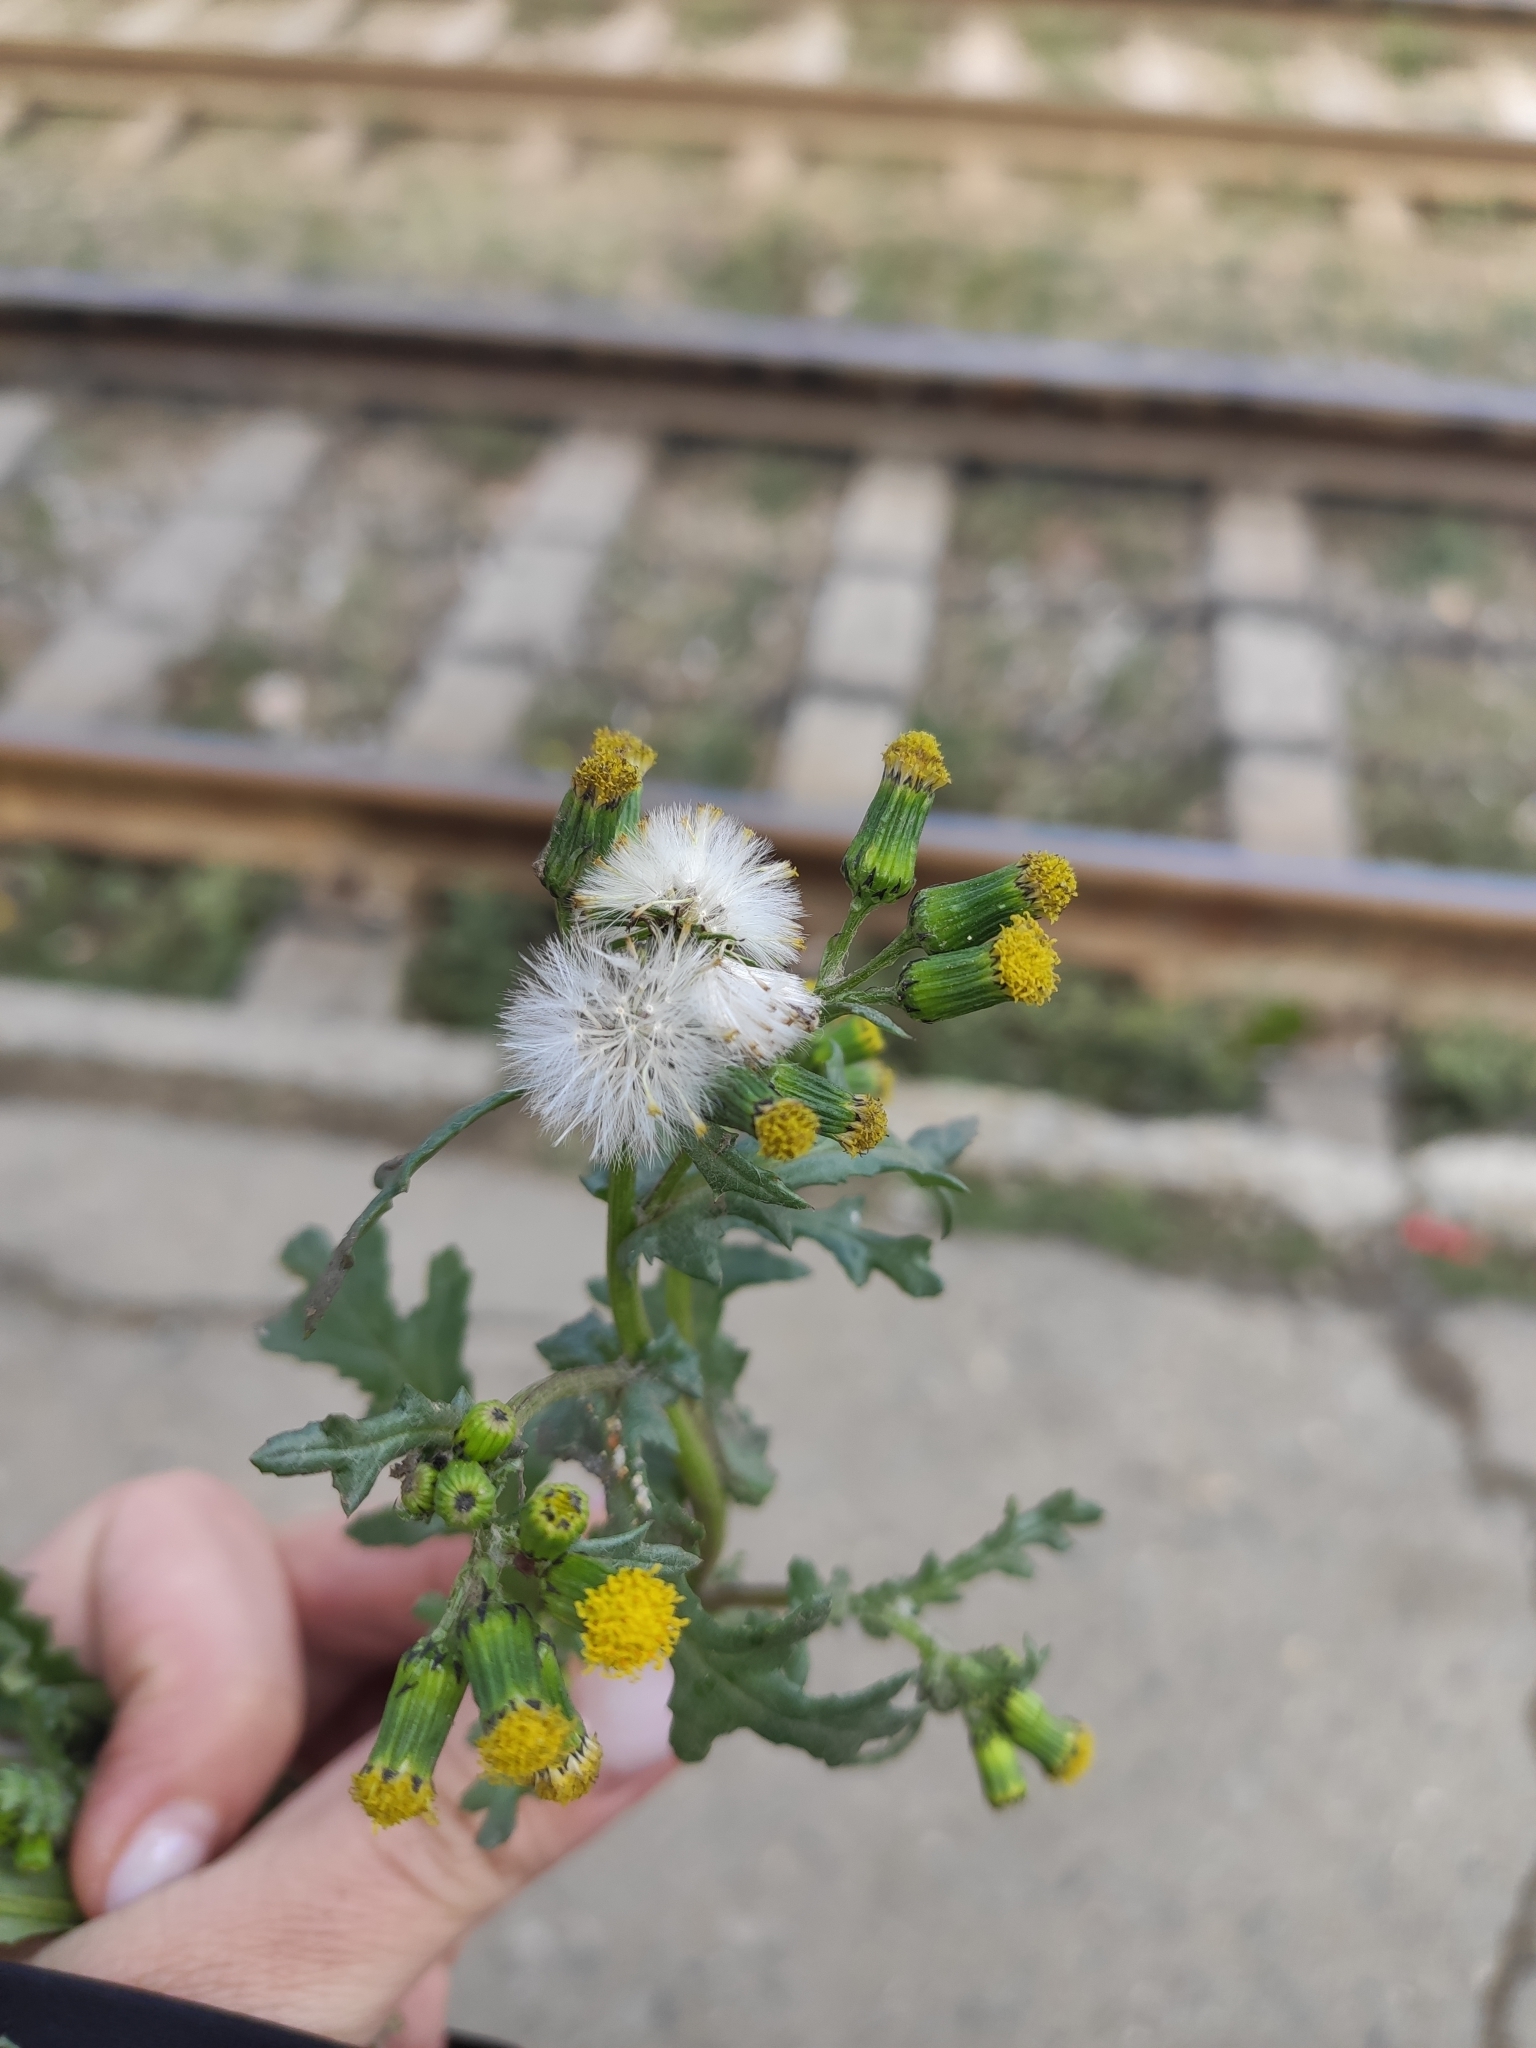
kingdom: Plantae
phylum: Tracheophyta
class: Magnoliopsida
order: Asterales
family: Asteraceae
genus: Senecio
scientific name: Senecio vulgaris
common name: Old-man-in-the-spring
